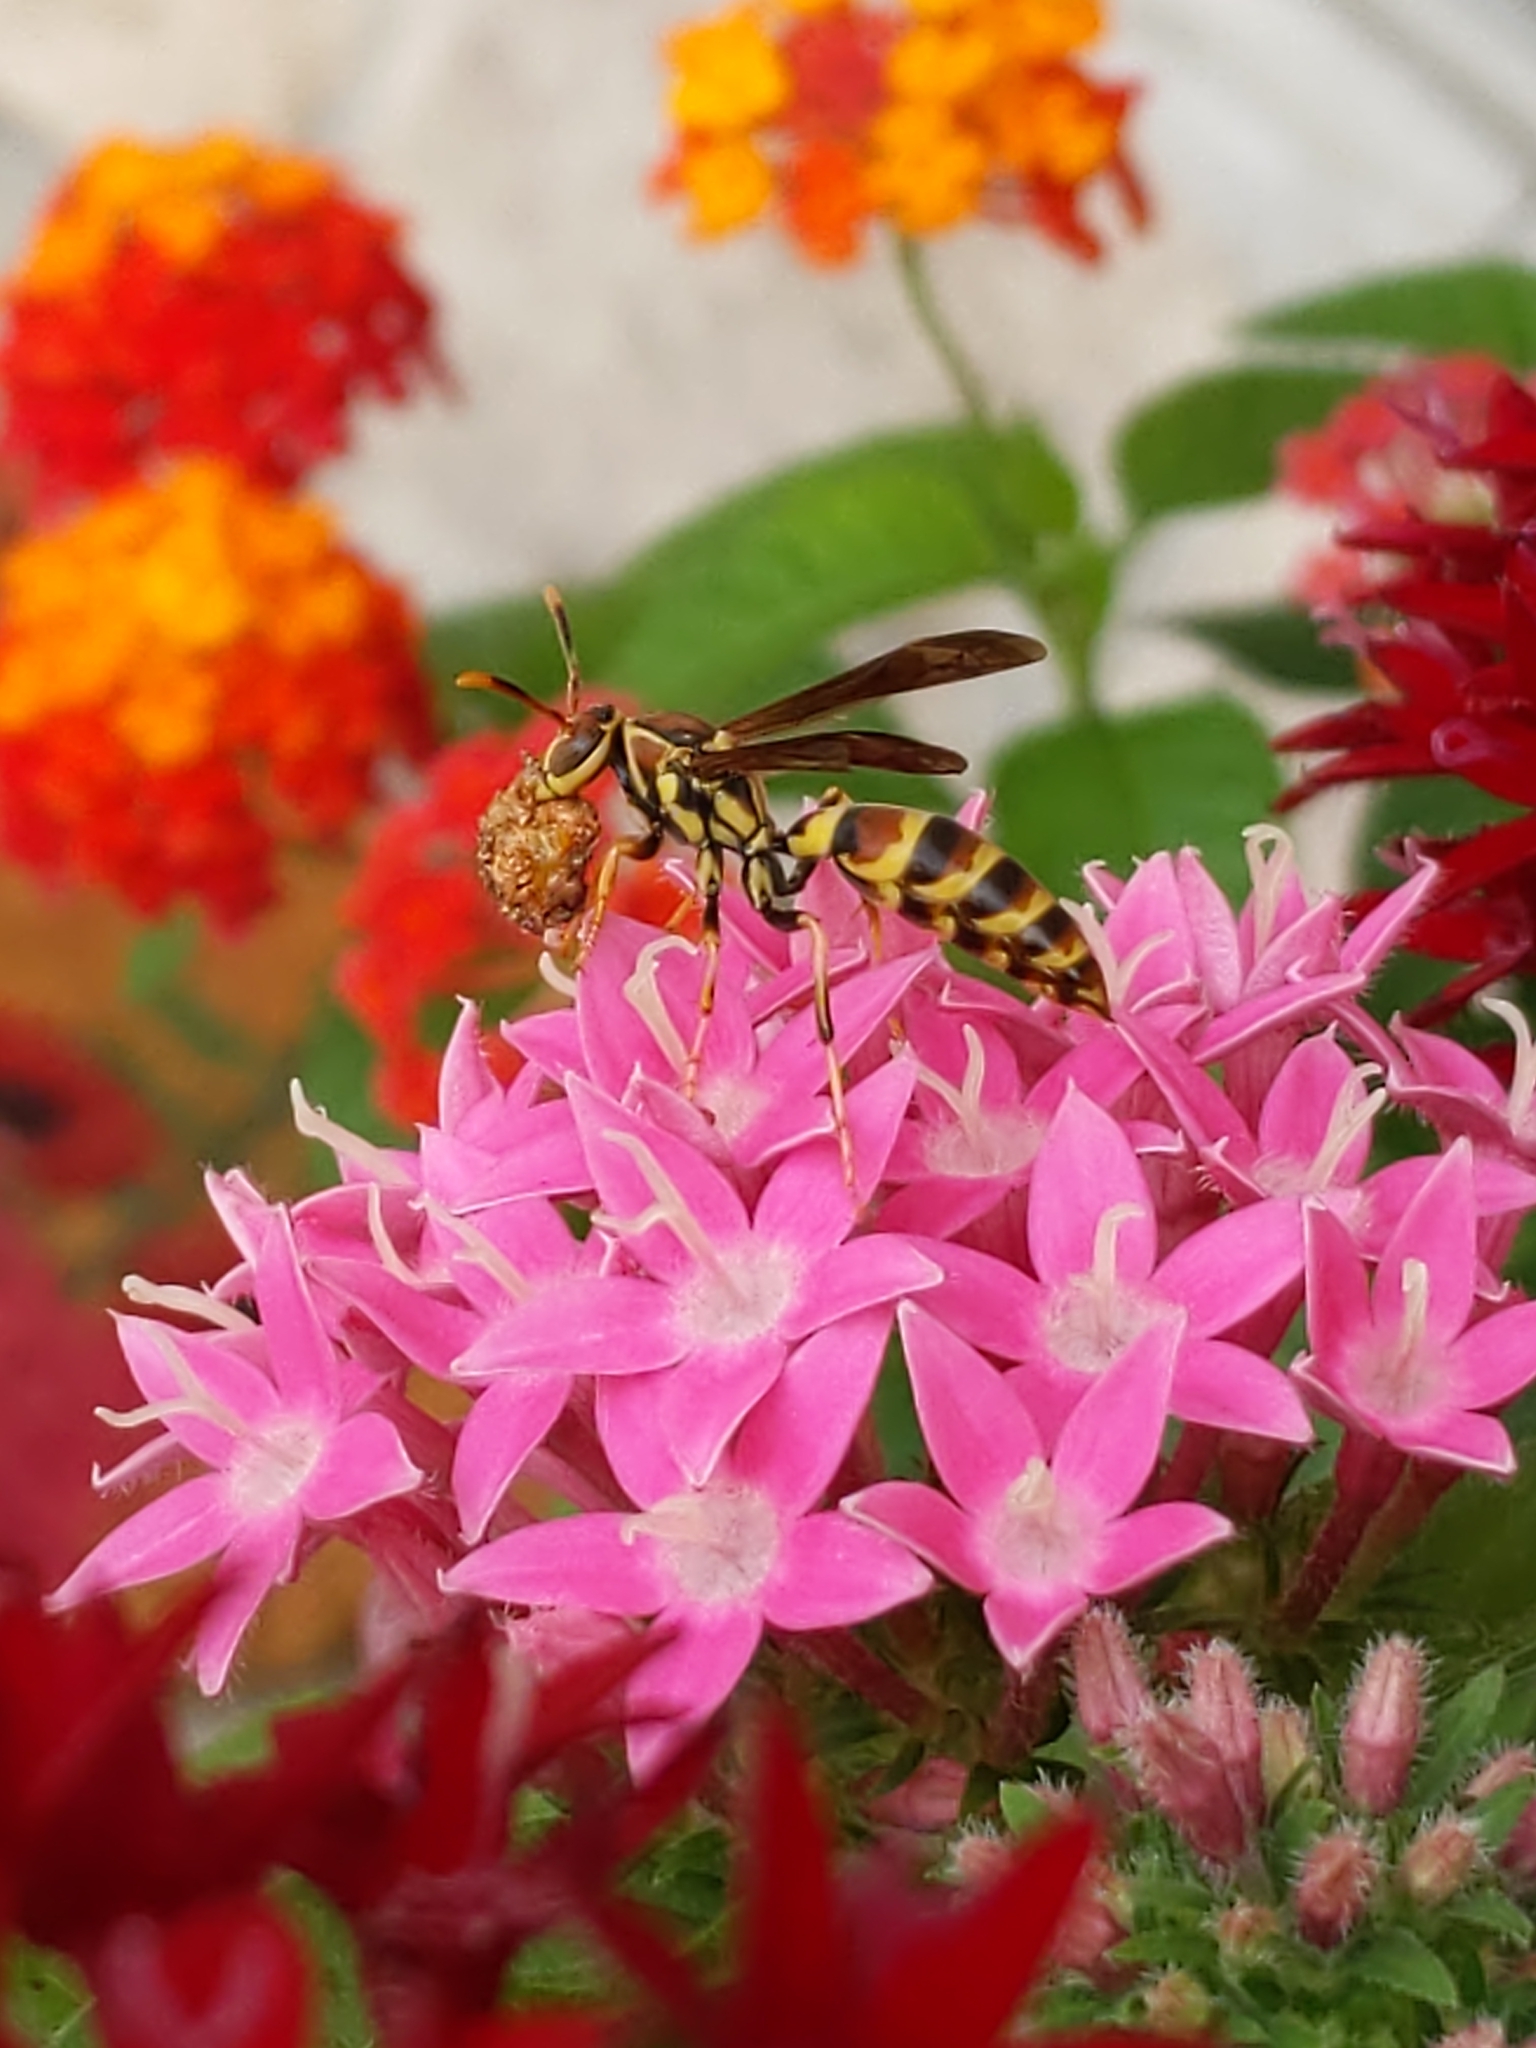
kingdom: Animalia
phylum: Arthropoda
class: Insecta
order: Hymenoptera
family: Eumenidae
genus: Polistes
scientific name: Polistes exclamans
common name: Paper wasp
